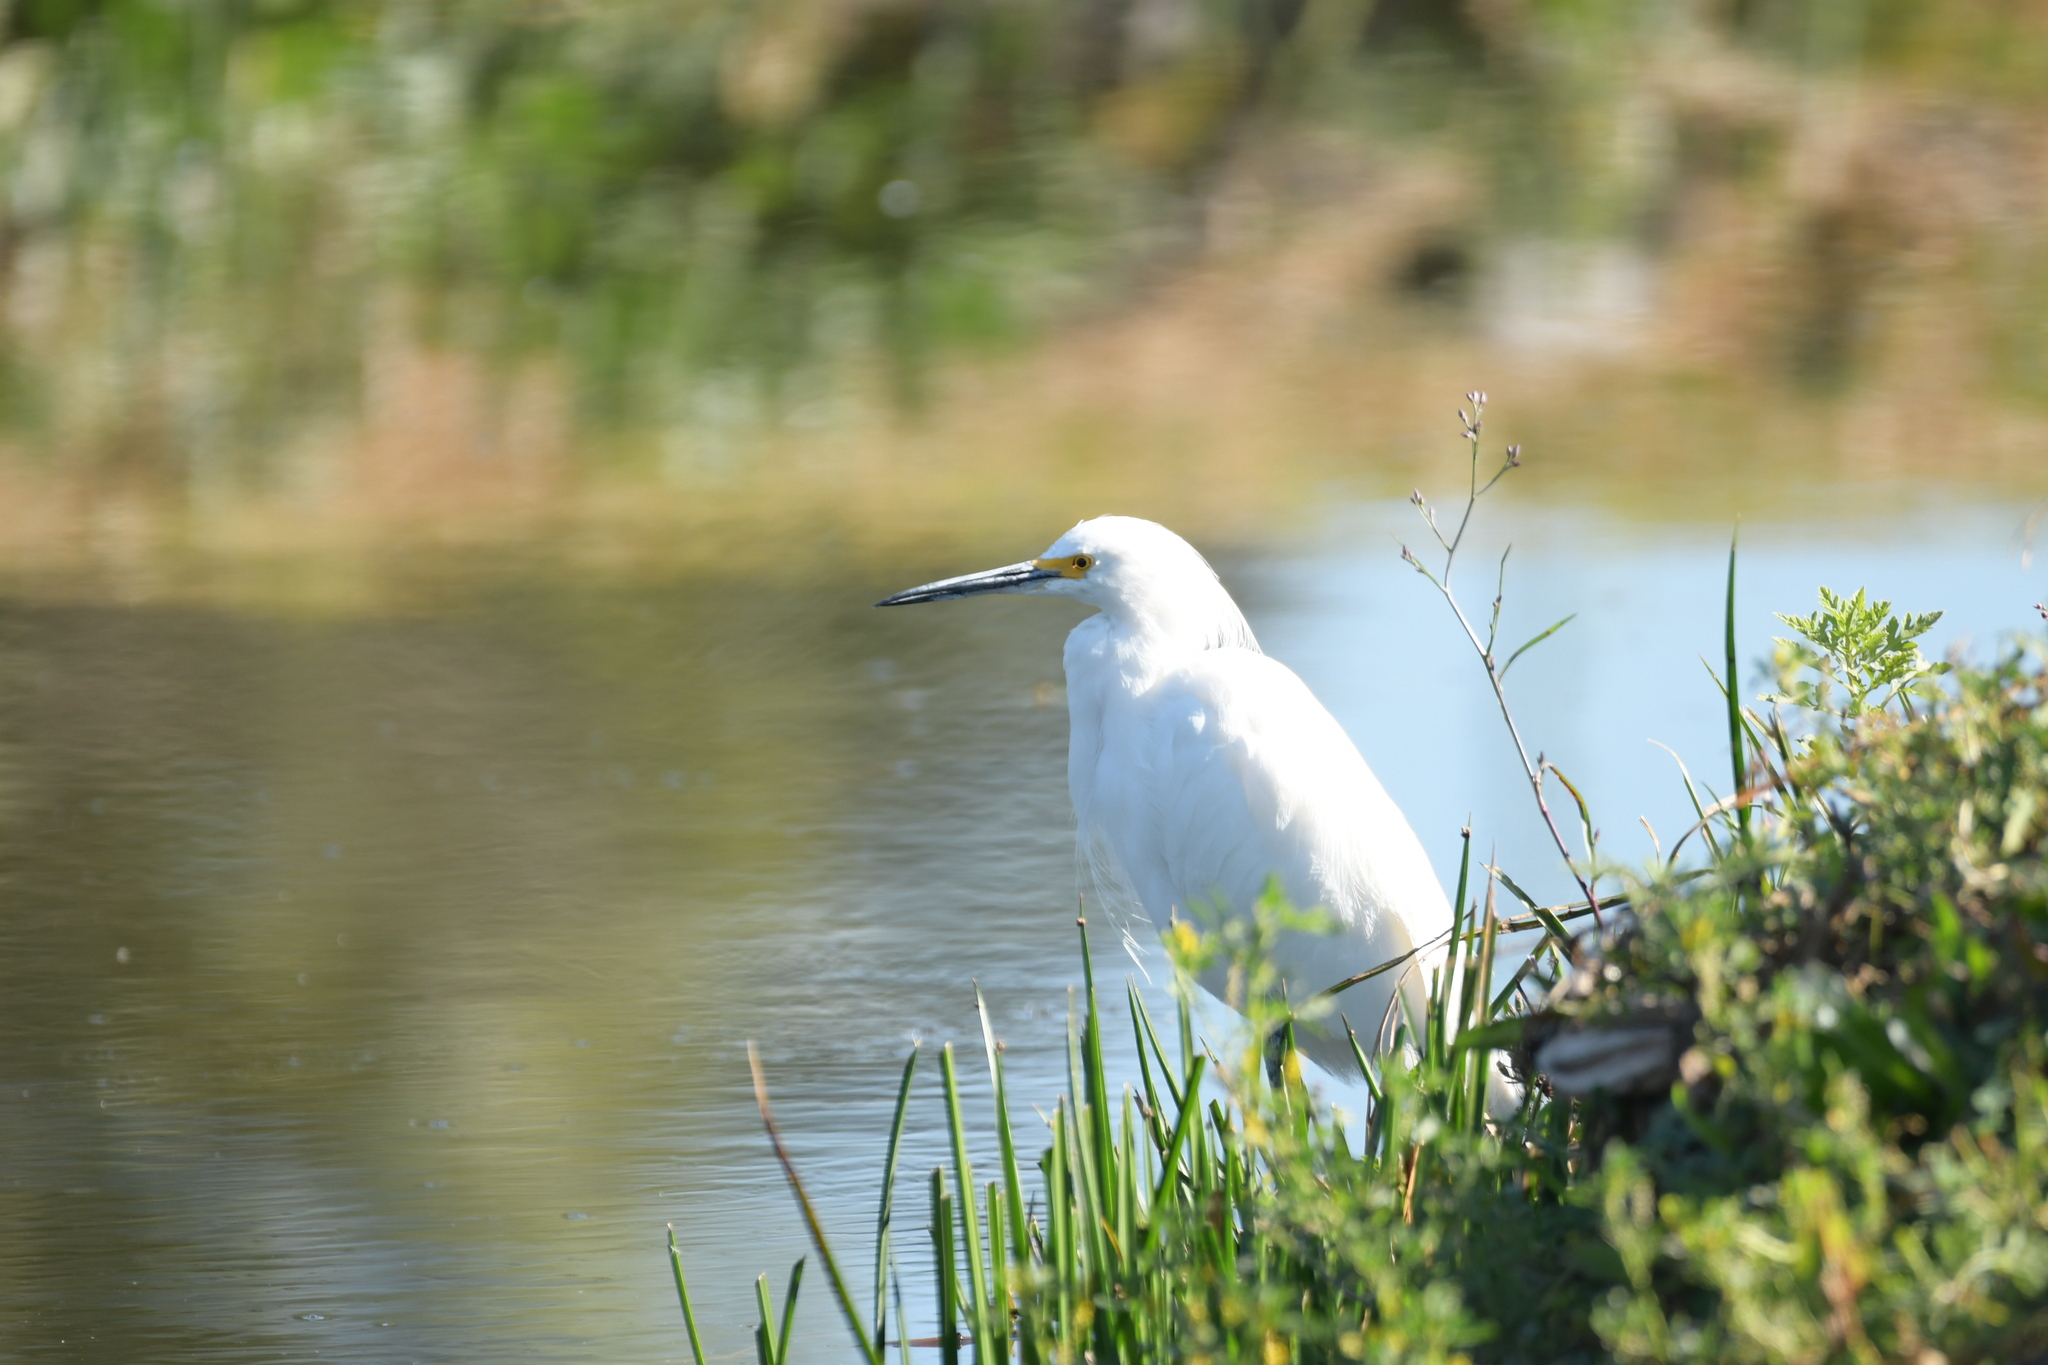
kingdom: Animalia
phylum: Chordata
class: Aves
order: Pelecaniformes
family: Ardeidae
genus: Egretta
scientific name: Egretta thula
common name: Snowy egret
